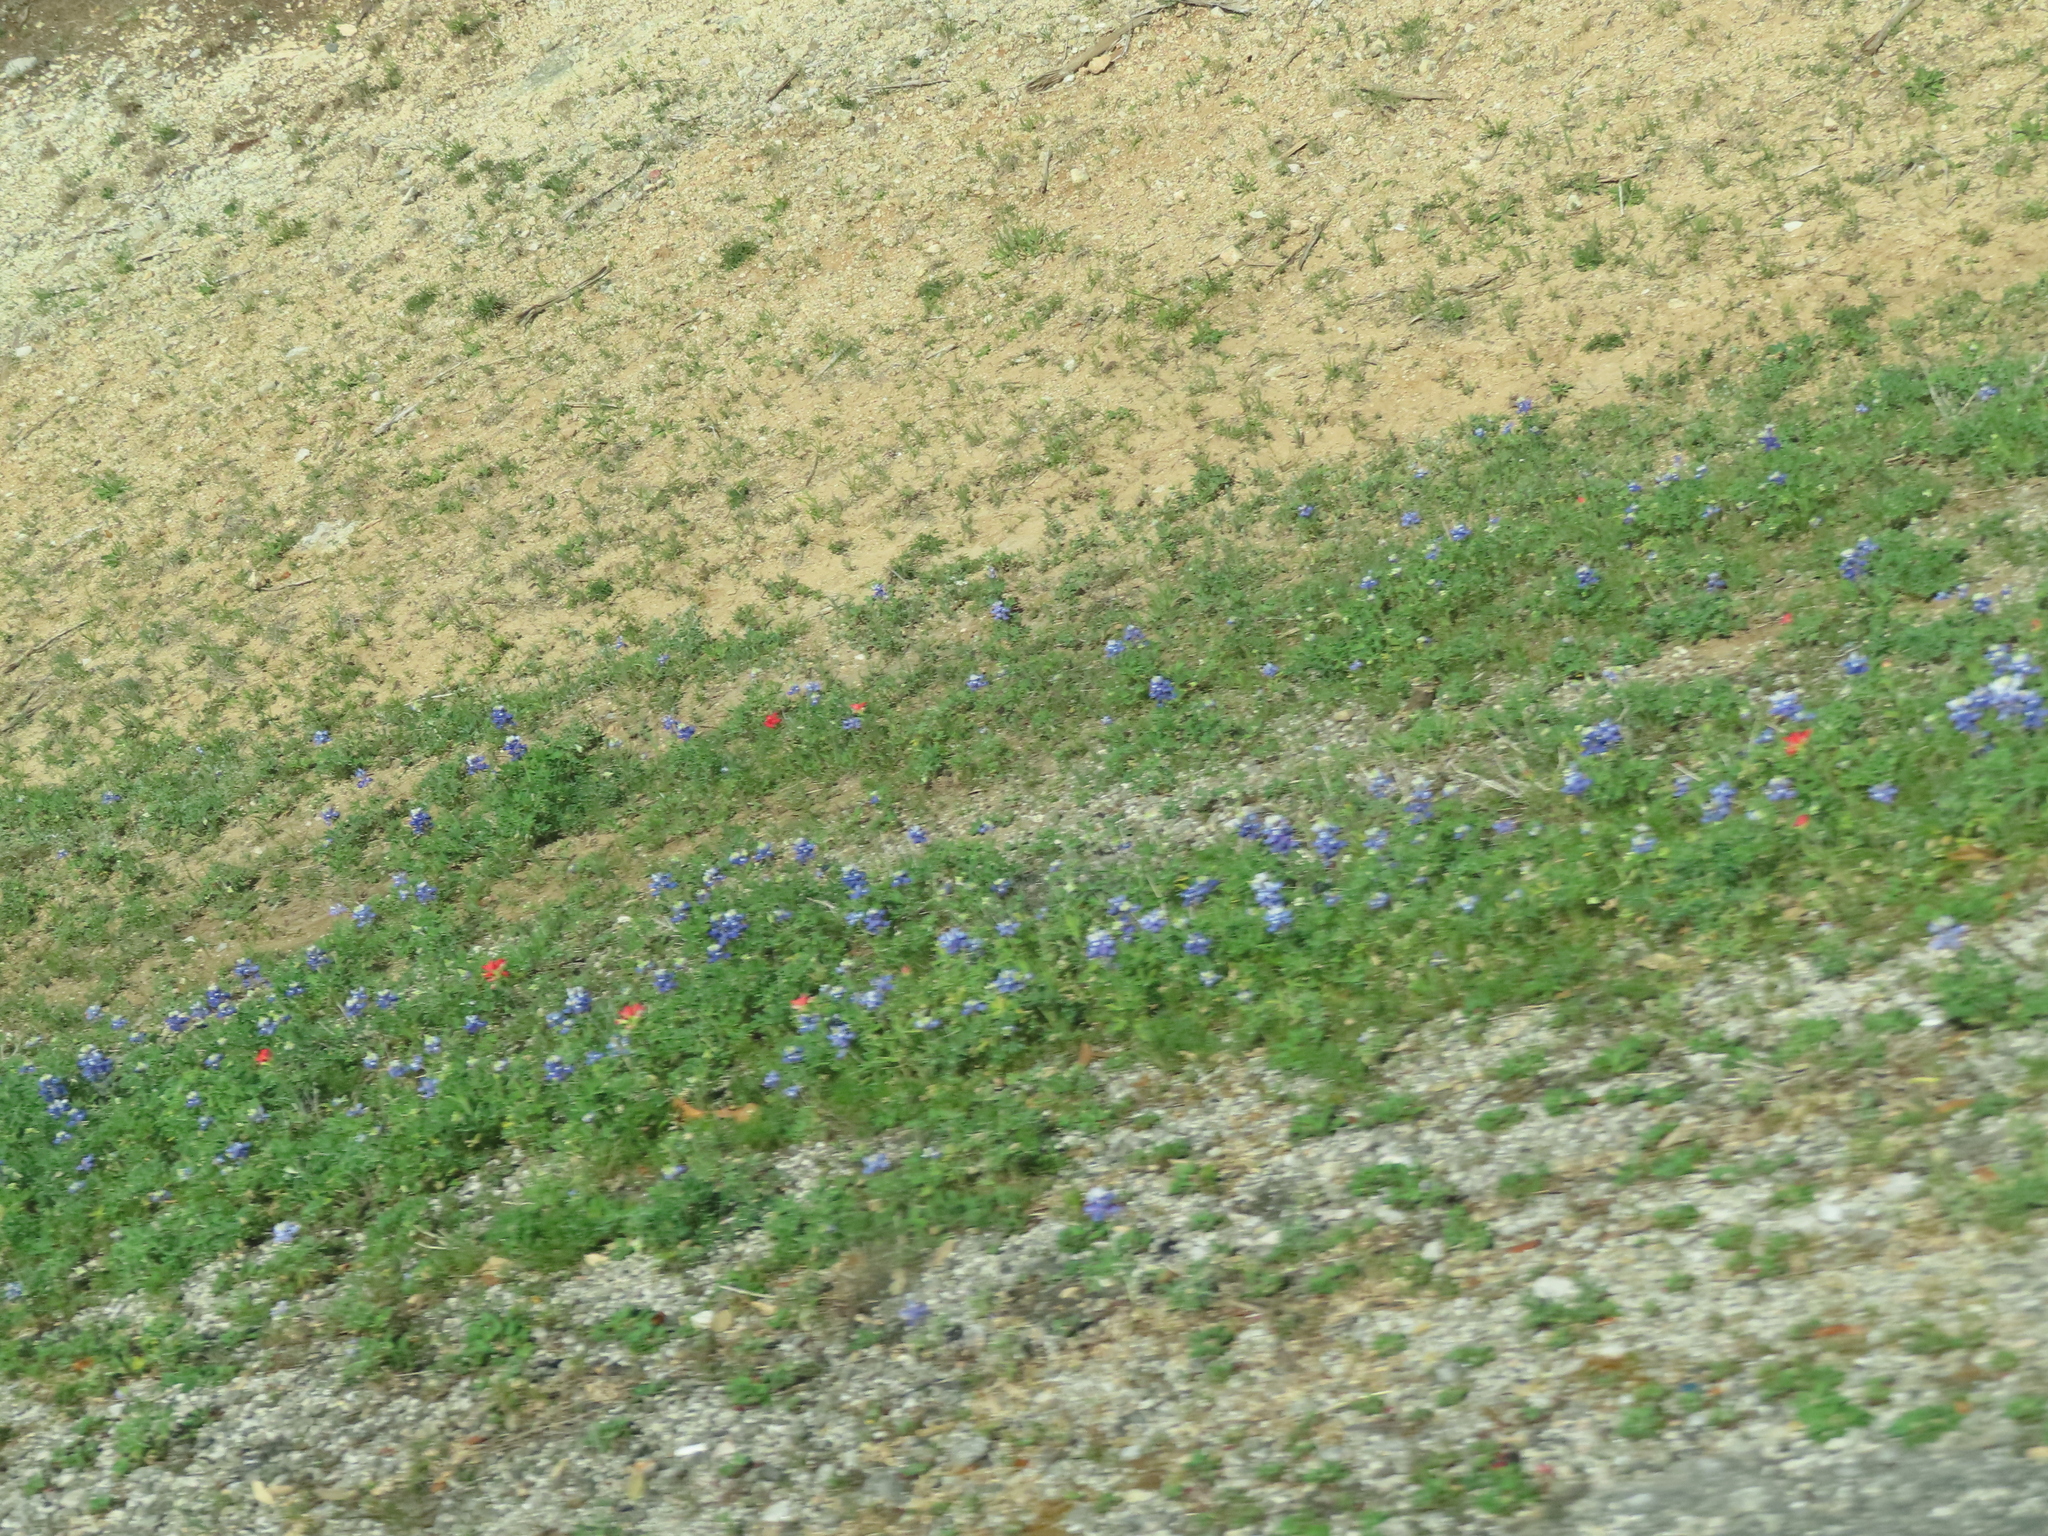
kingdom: Plantae
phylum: Tracheophyta
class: Magnoliopsida
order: Fabales
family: Fabaceae
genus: Lupinus
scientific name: Lupinus texensis
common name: Texas bluebonnet
